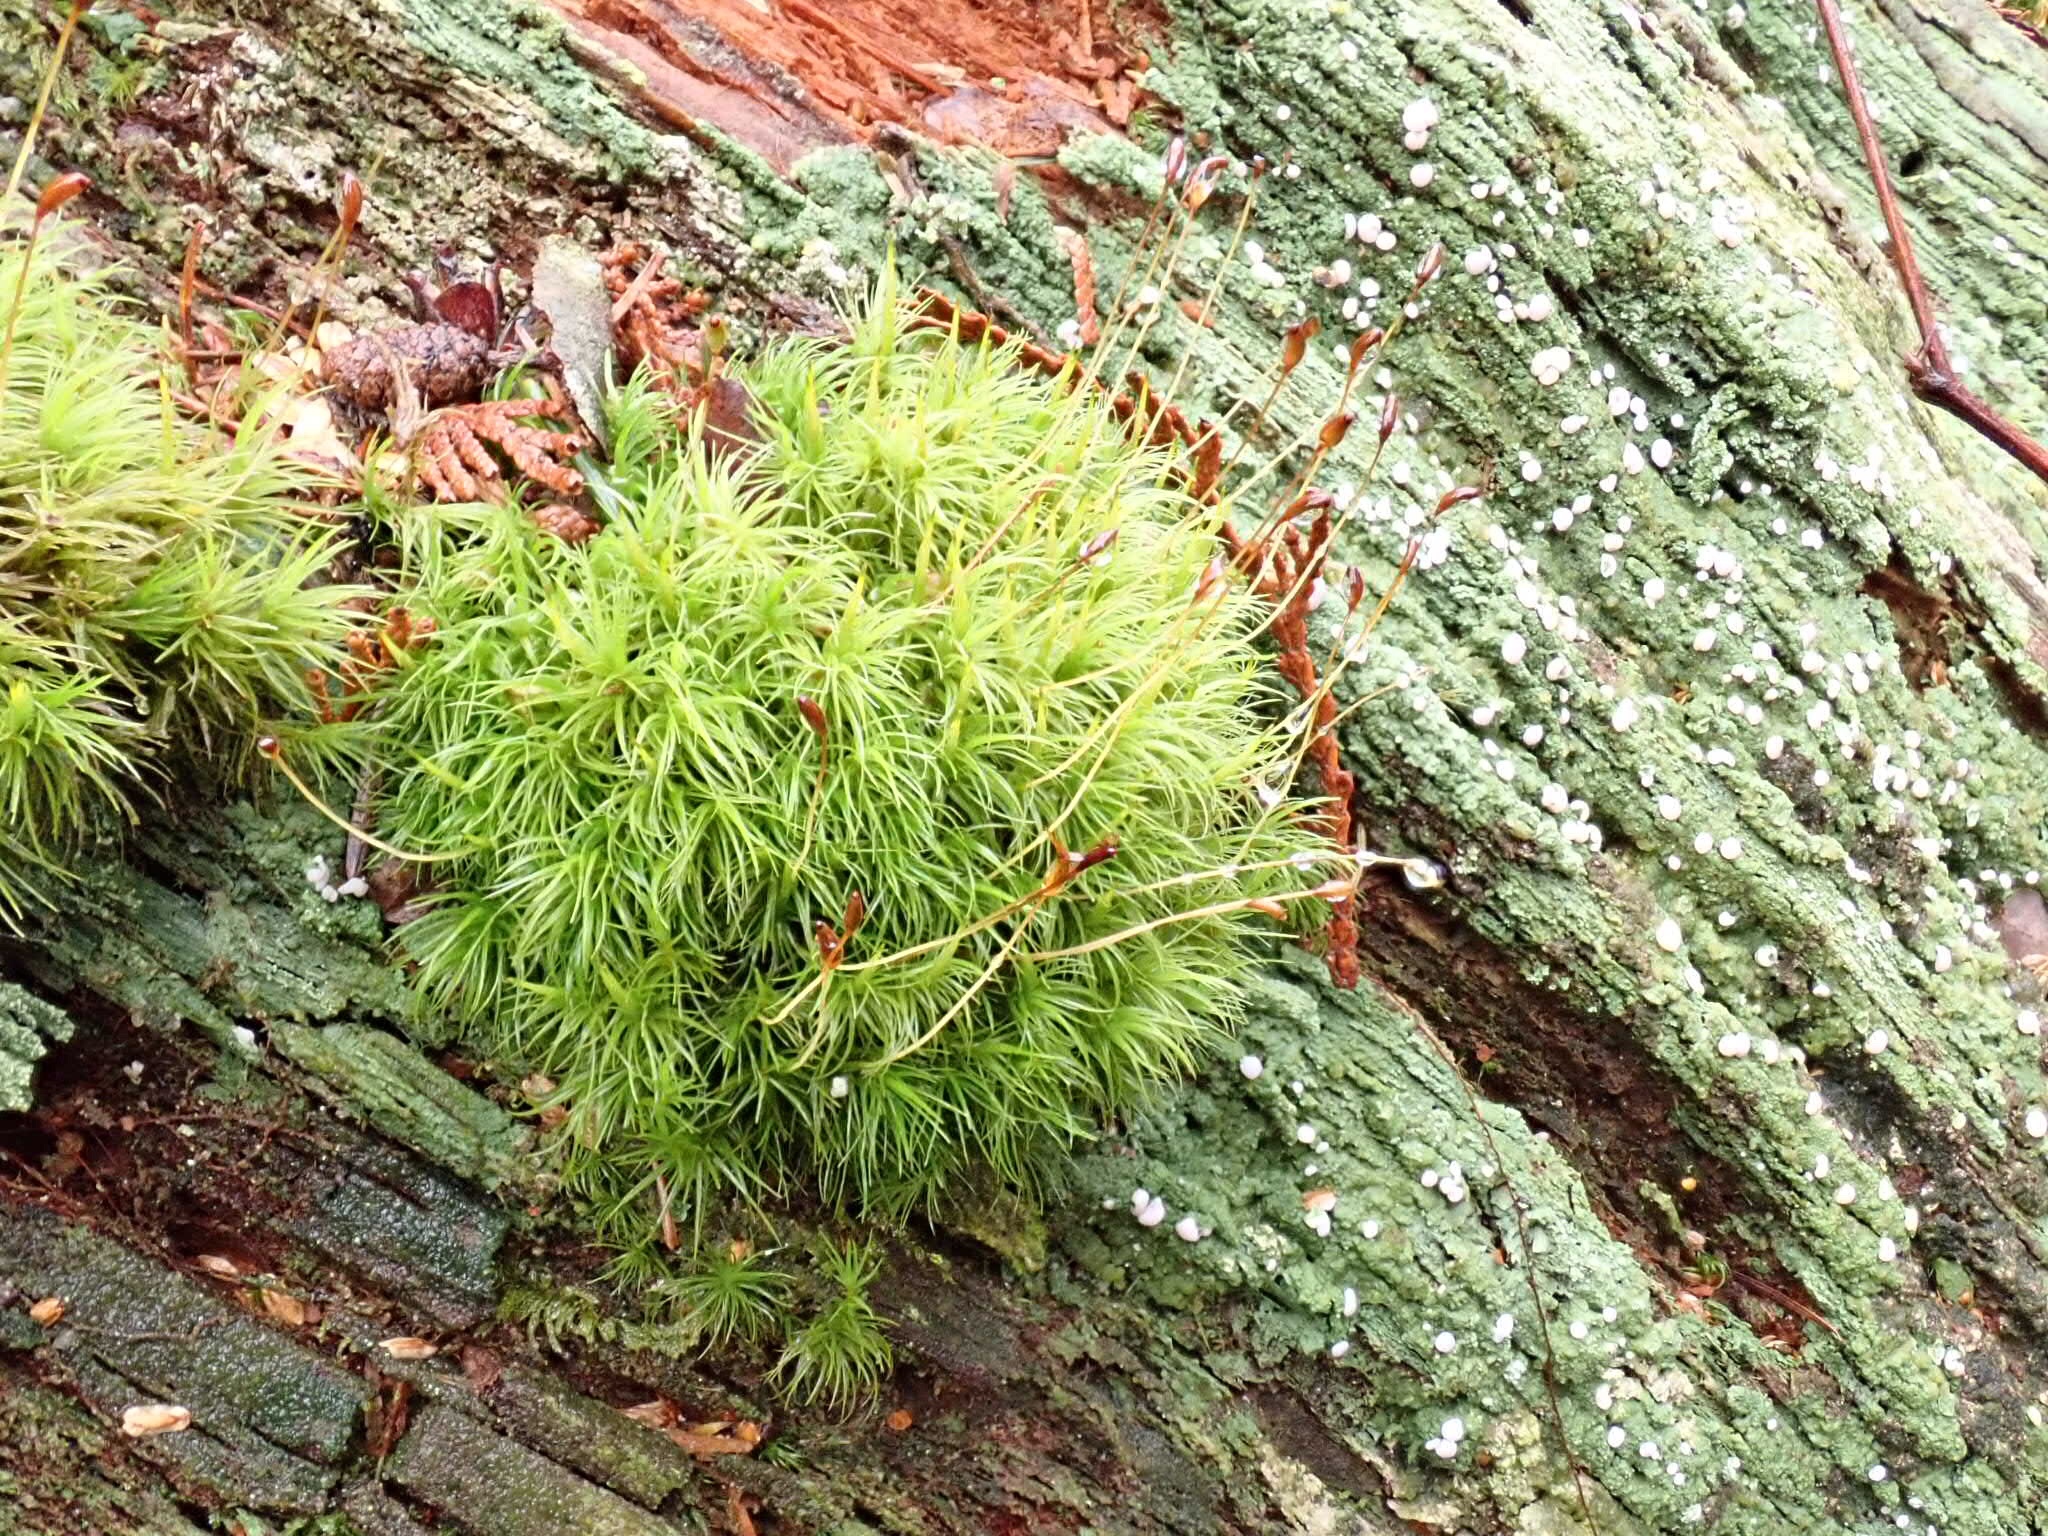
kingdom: Plantae
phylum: Bryophyta
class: Bryopsida
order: Dicranales
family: Dicranaceae
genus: Dicranum
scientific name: Dicranum scoparium
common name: Broom fork-moss
